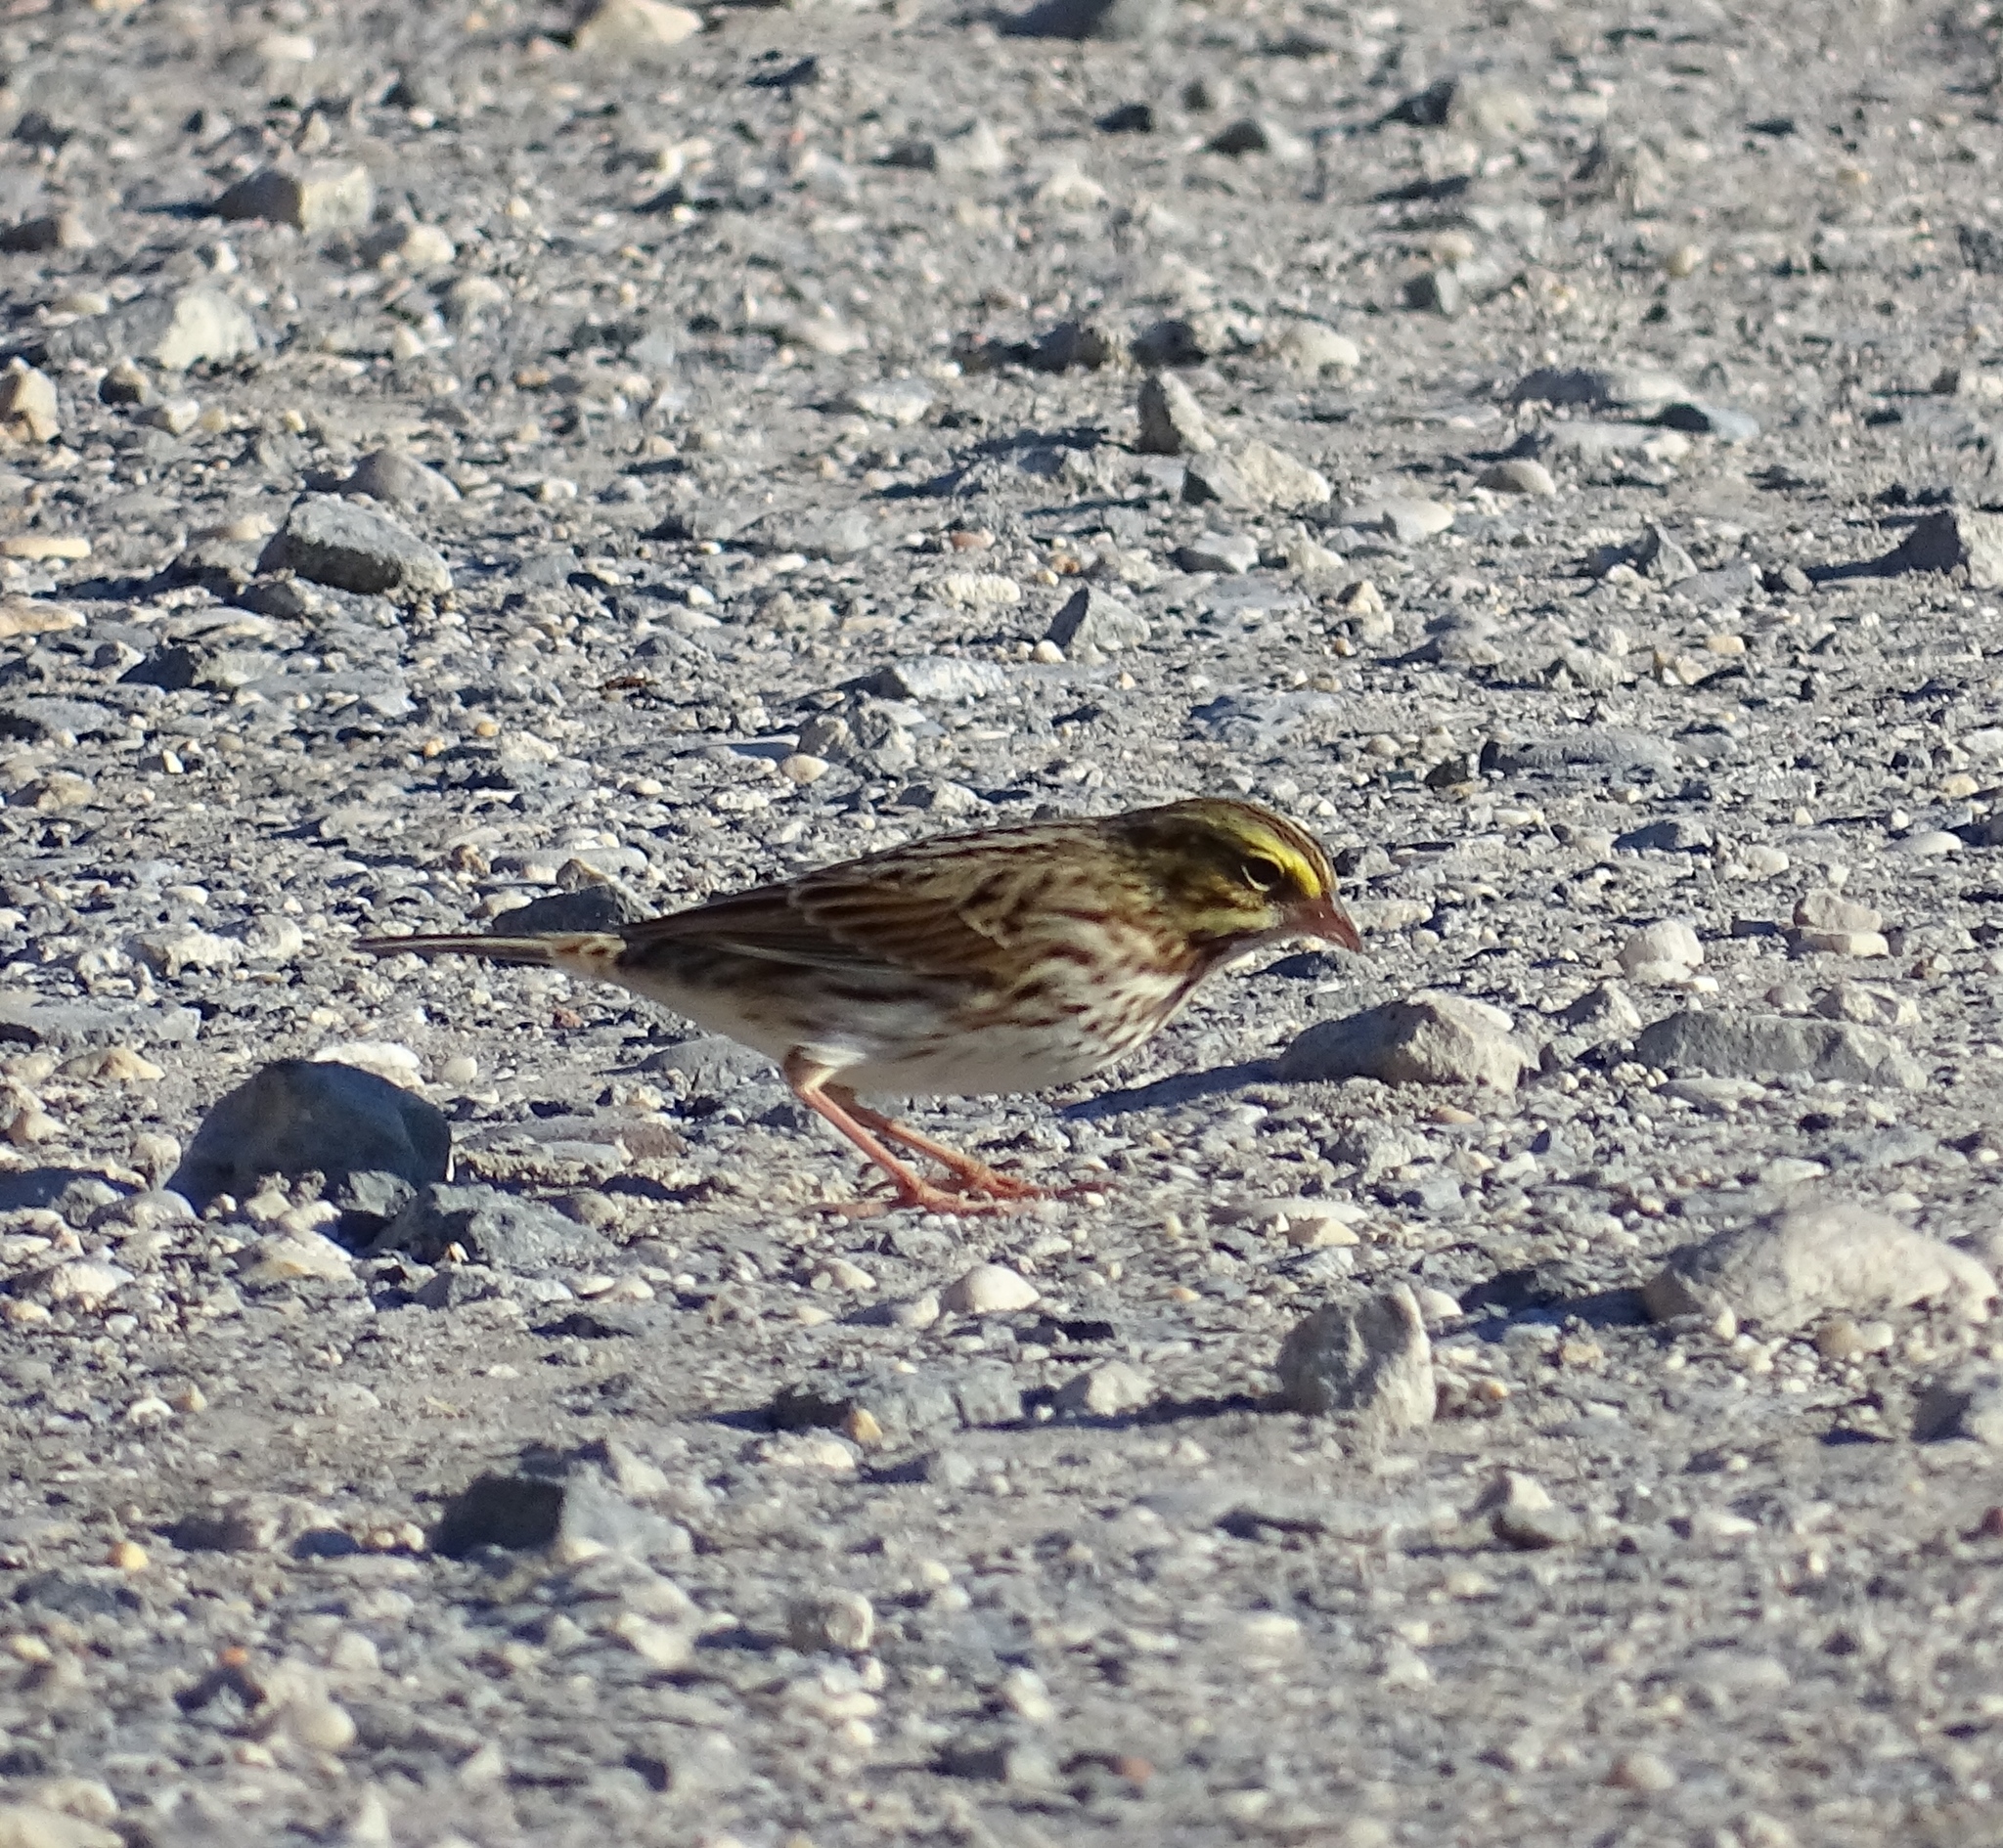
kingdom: Animalia
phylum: Chordata
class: Aves
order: Passeriformes
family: Passerellidae
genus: Passerculus
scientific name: Passerculus sandwichensis
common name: Savannah sparrow
